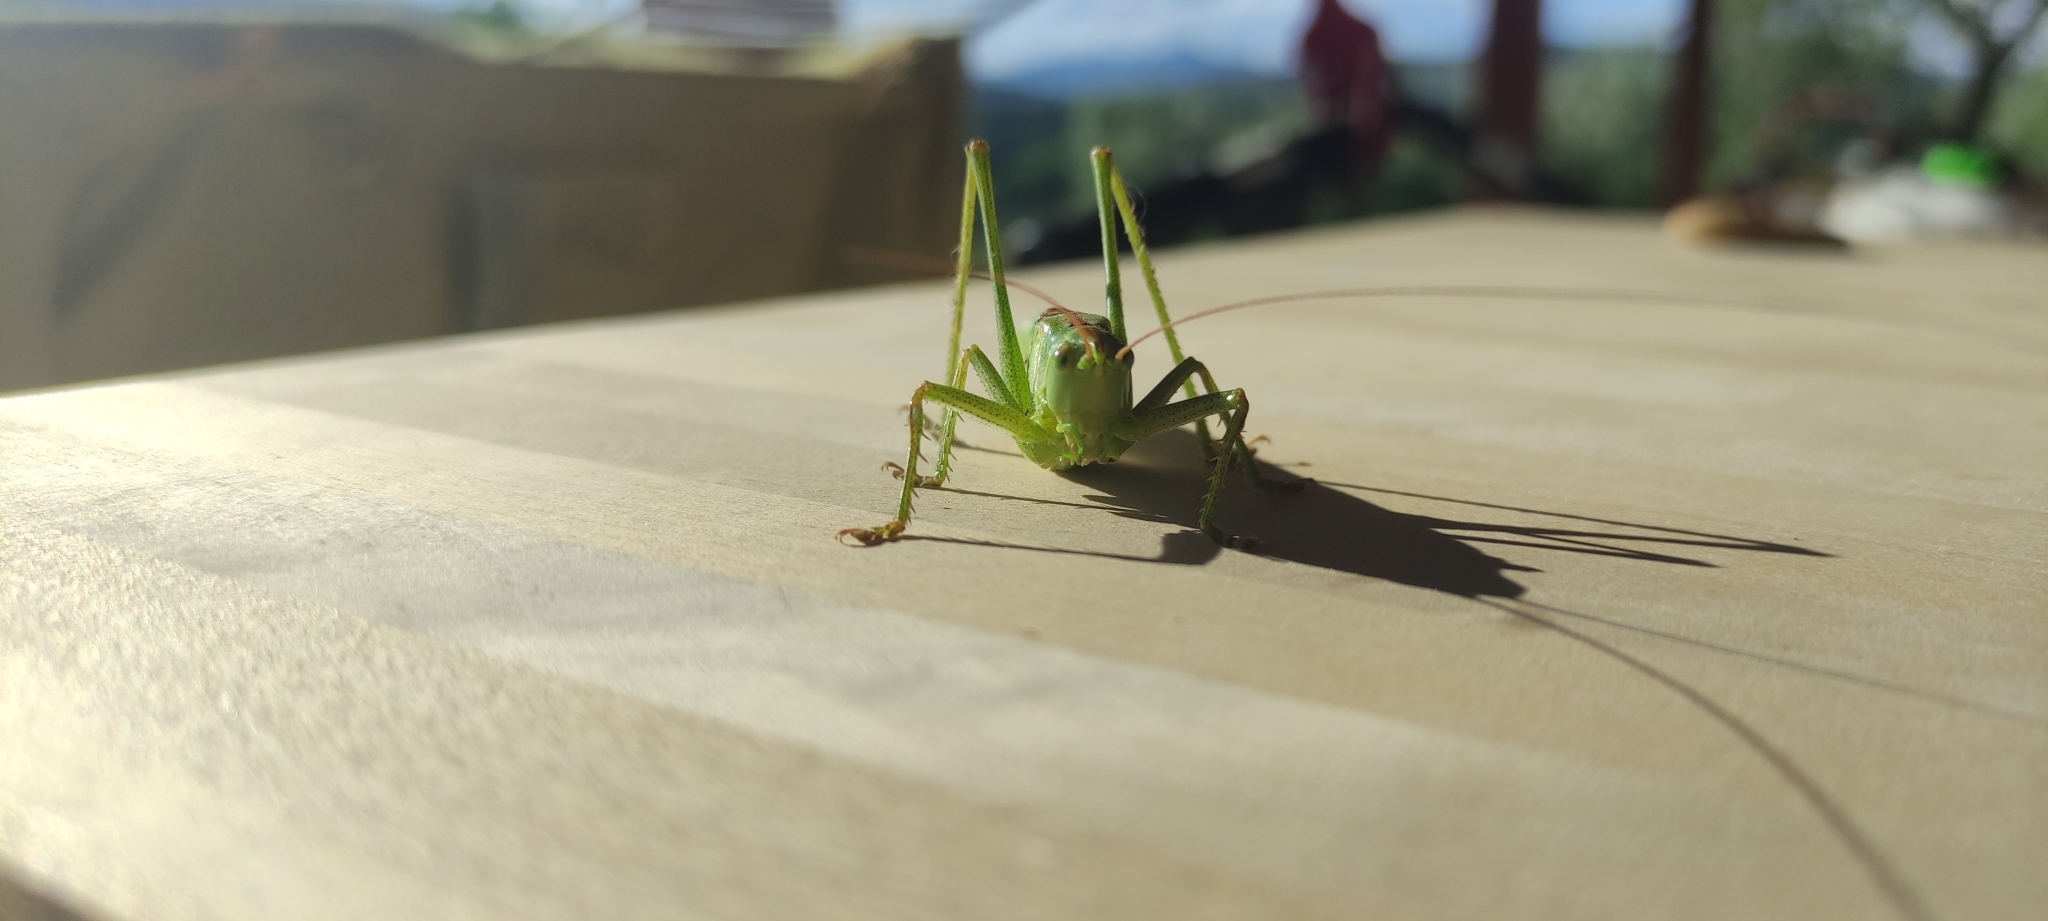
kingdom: Animalia
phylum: Arthropoda
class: Insecta
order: Orthoptera
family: Tettigoniidae
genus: Tettigonia
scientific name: Tettigonia viridissima
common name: Great green bush-cricket
